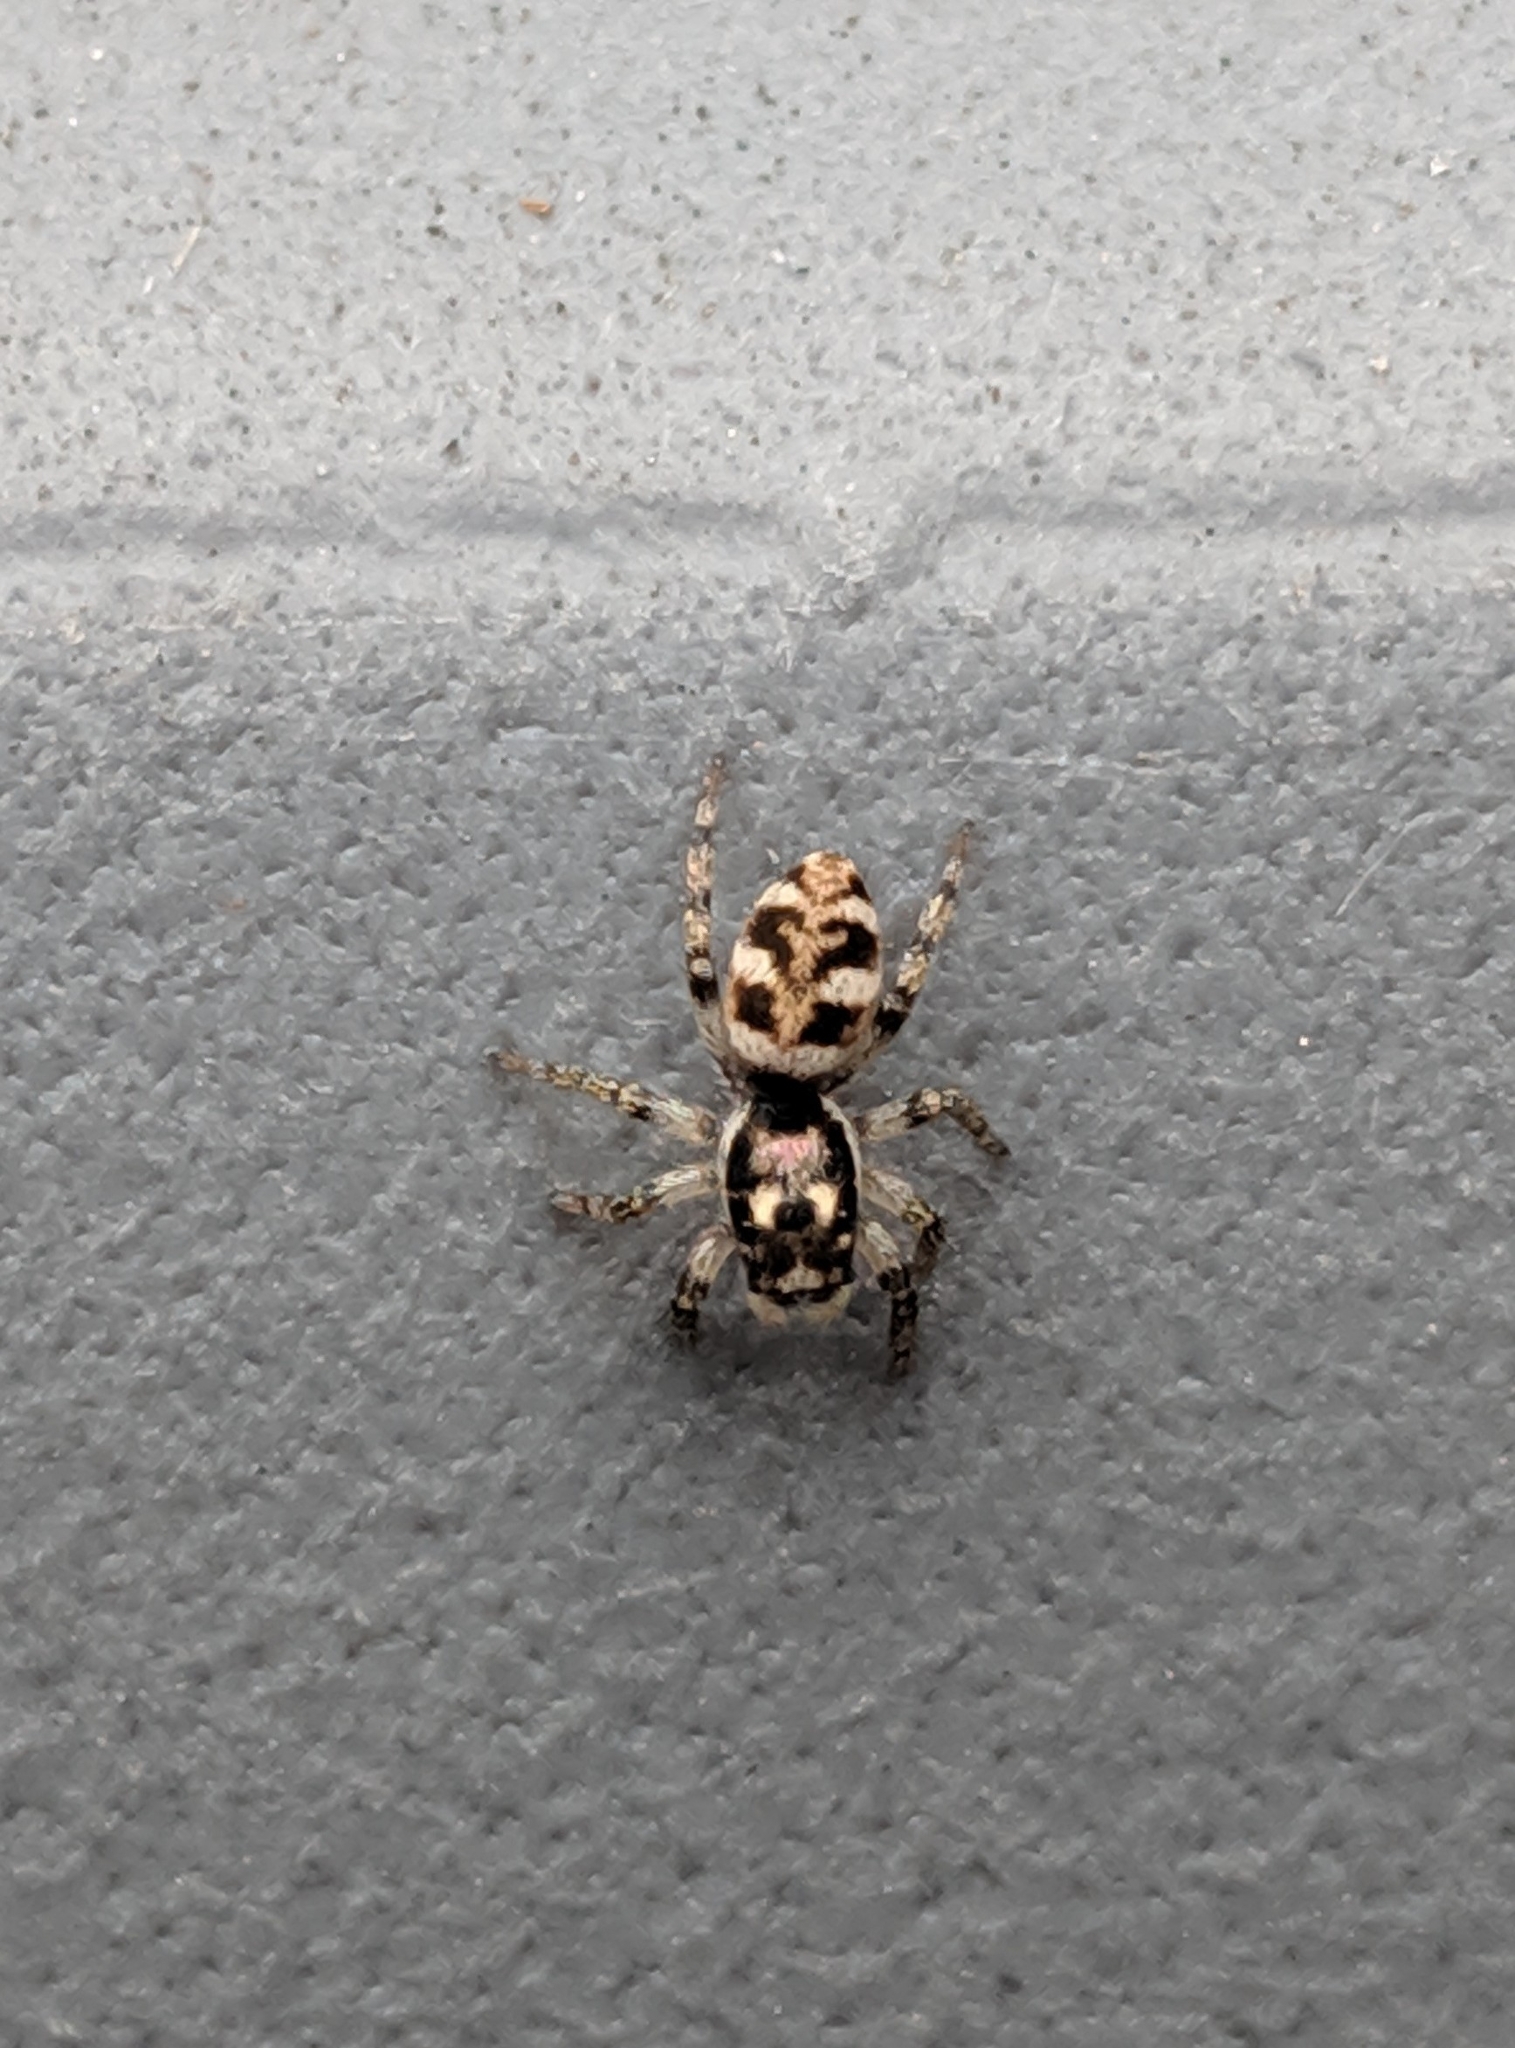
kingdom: Animalia
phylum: Arthropoda
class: Arachnida
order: Araneae
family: Salticidae
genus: Salticus
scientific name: Salticus scenicus
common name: Zebra jumper
